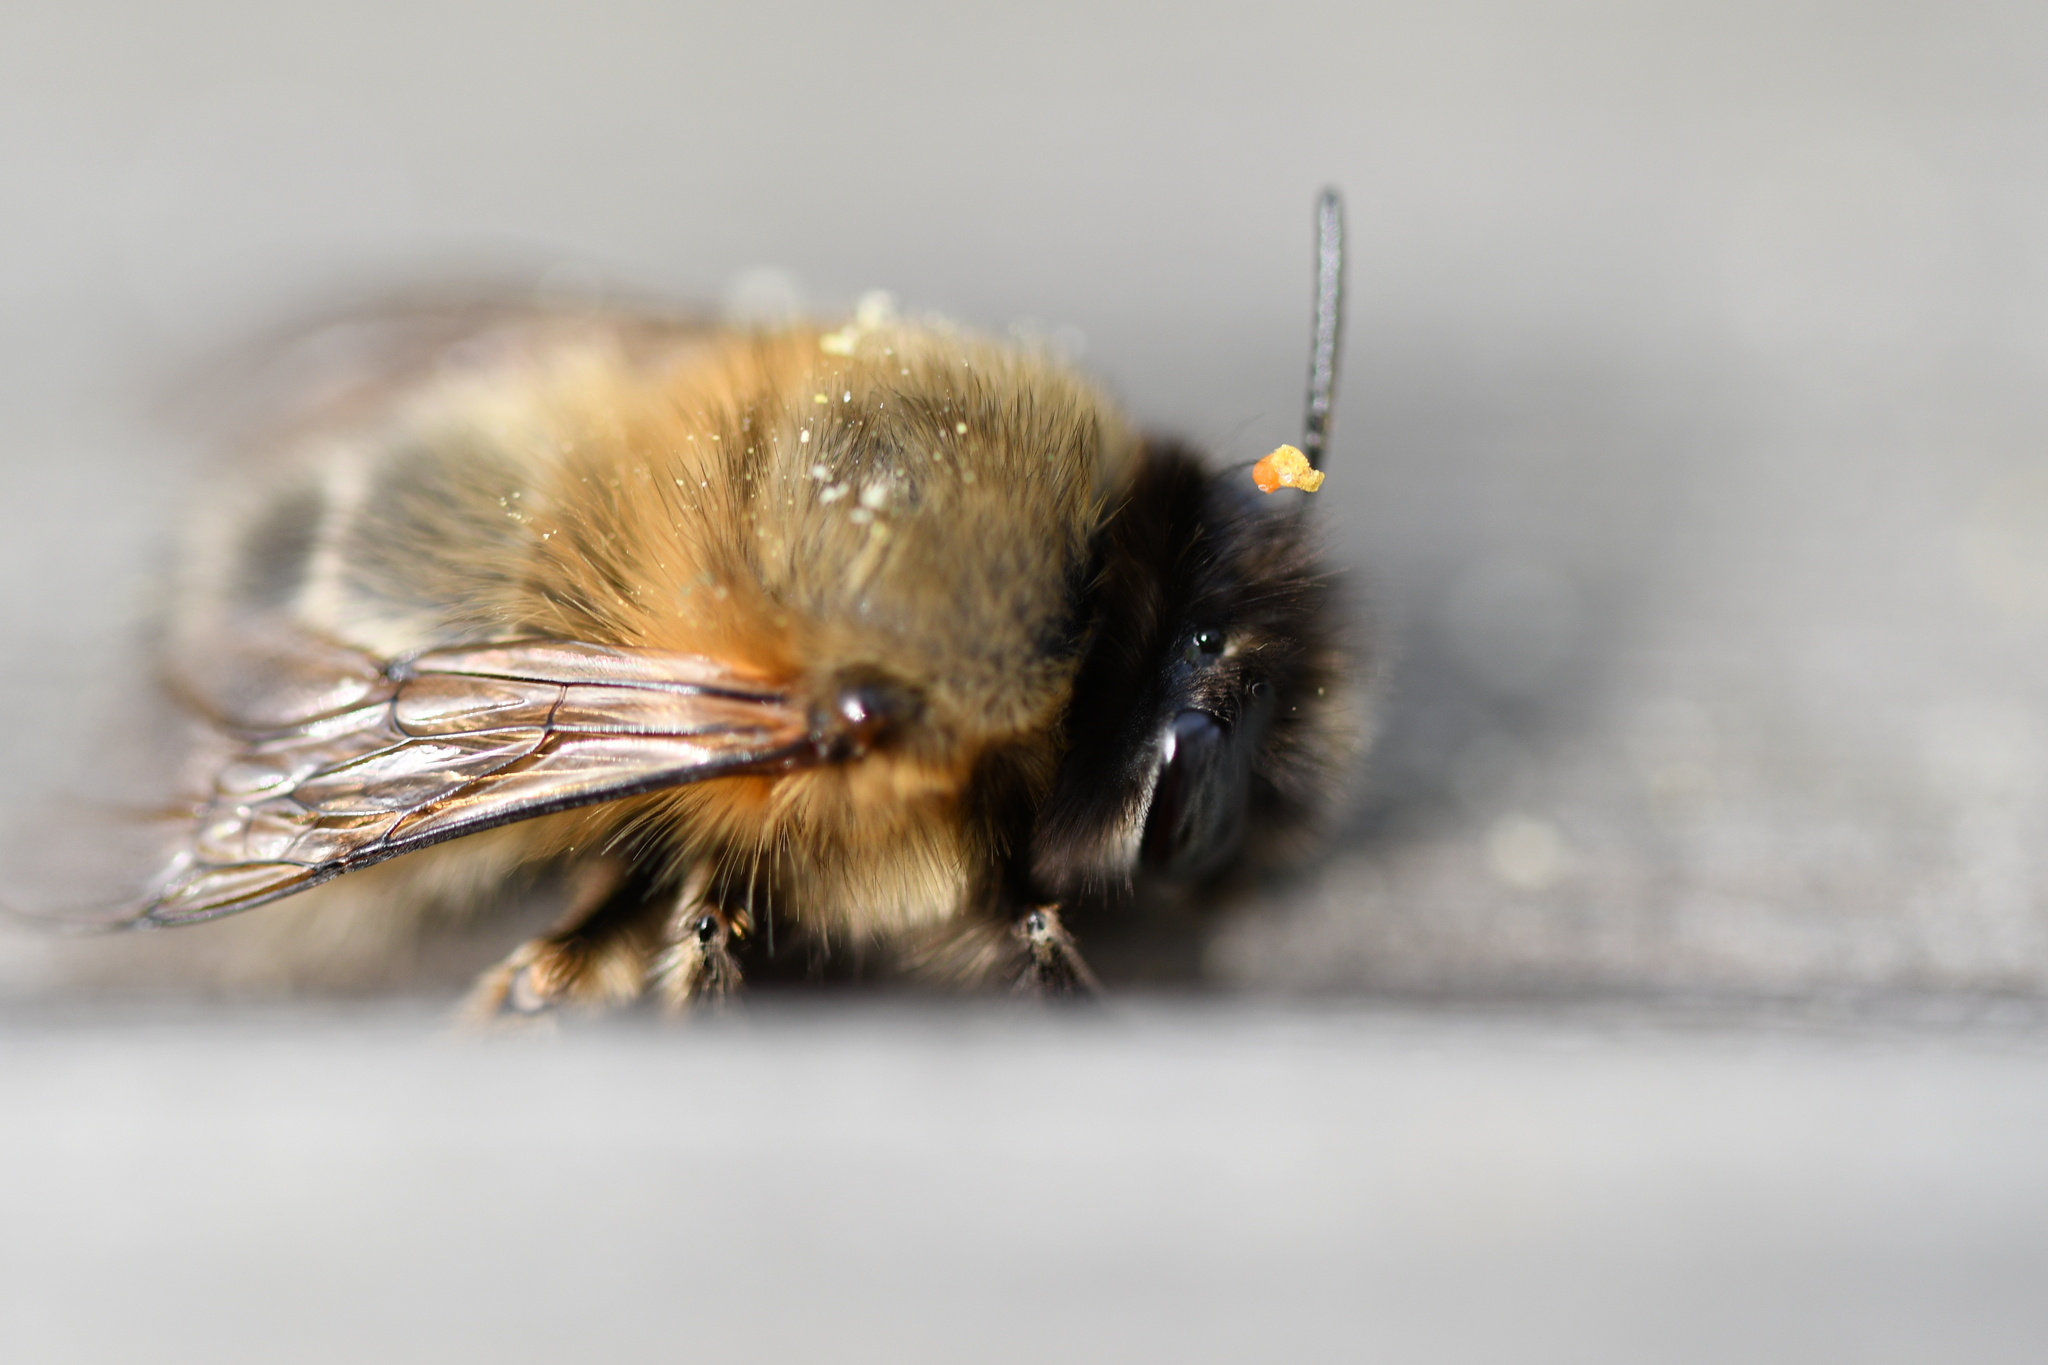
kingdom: Animalia
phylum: Arthropoda
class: Insecta
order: Hymenoptera
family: Apidae
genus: Anthophora
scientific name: Anthophora plumipes
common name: Hairy-footed flower bee
